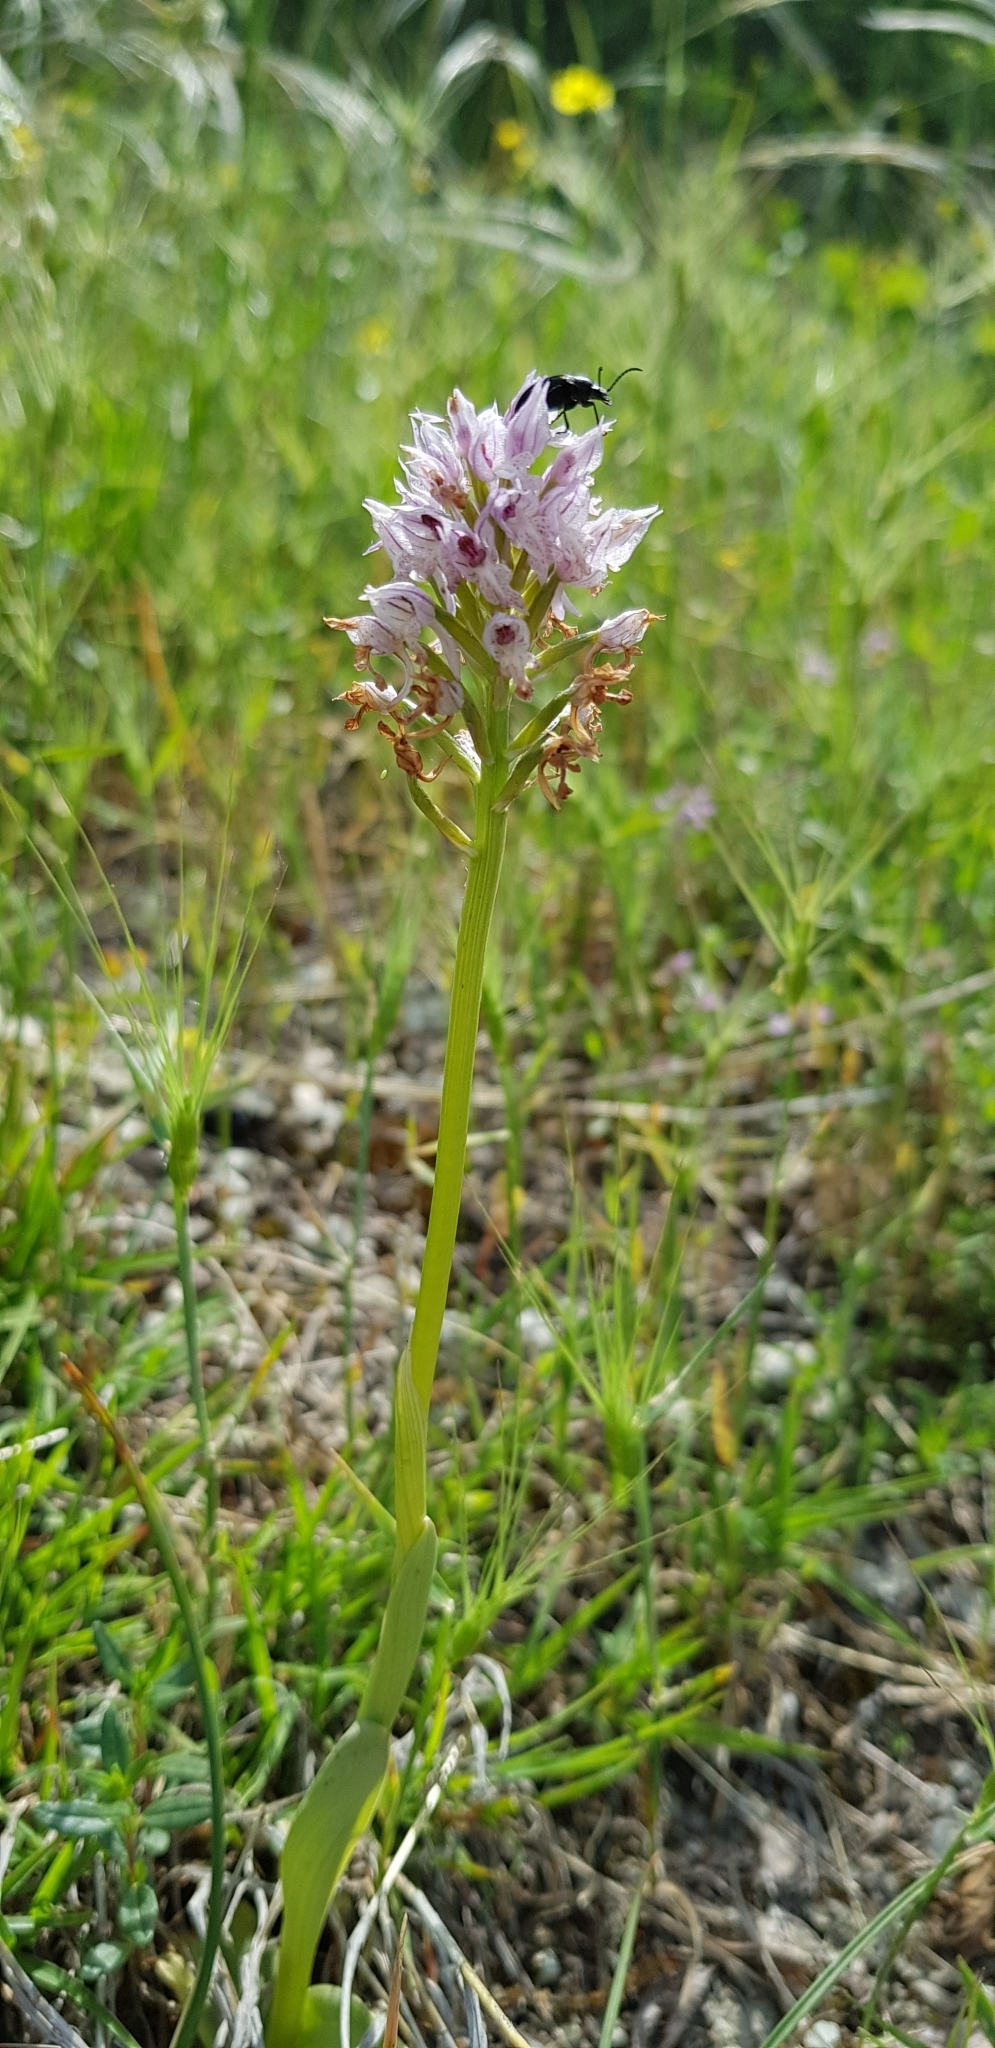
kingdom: Plantae
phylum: Tracheophyta
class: Liliopsida
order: Asparagales
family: Orchidaceae
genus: Neotinea
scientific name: Neotinea tridentata
